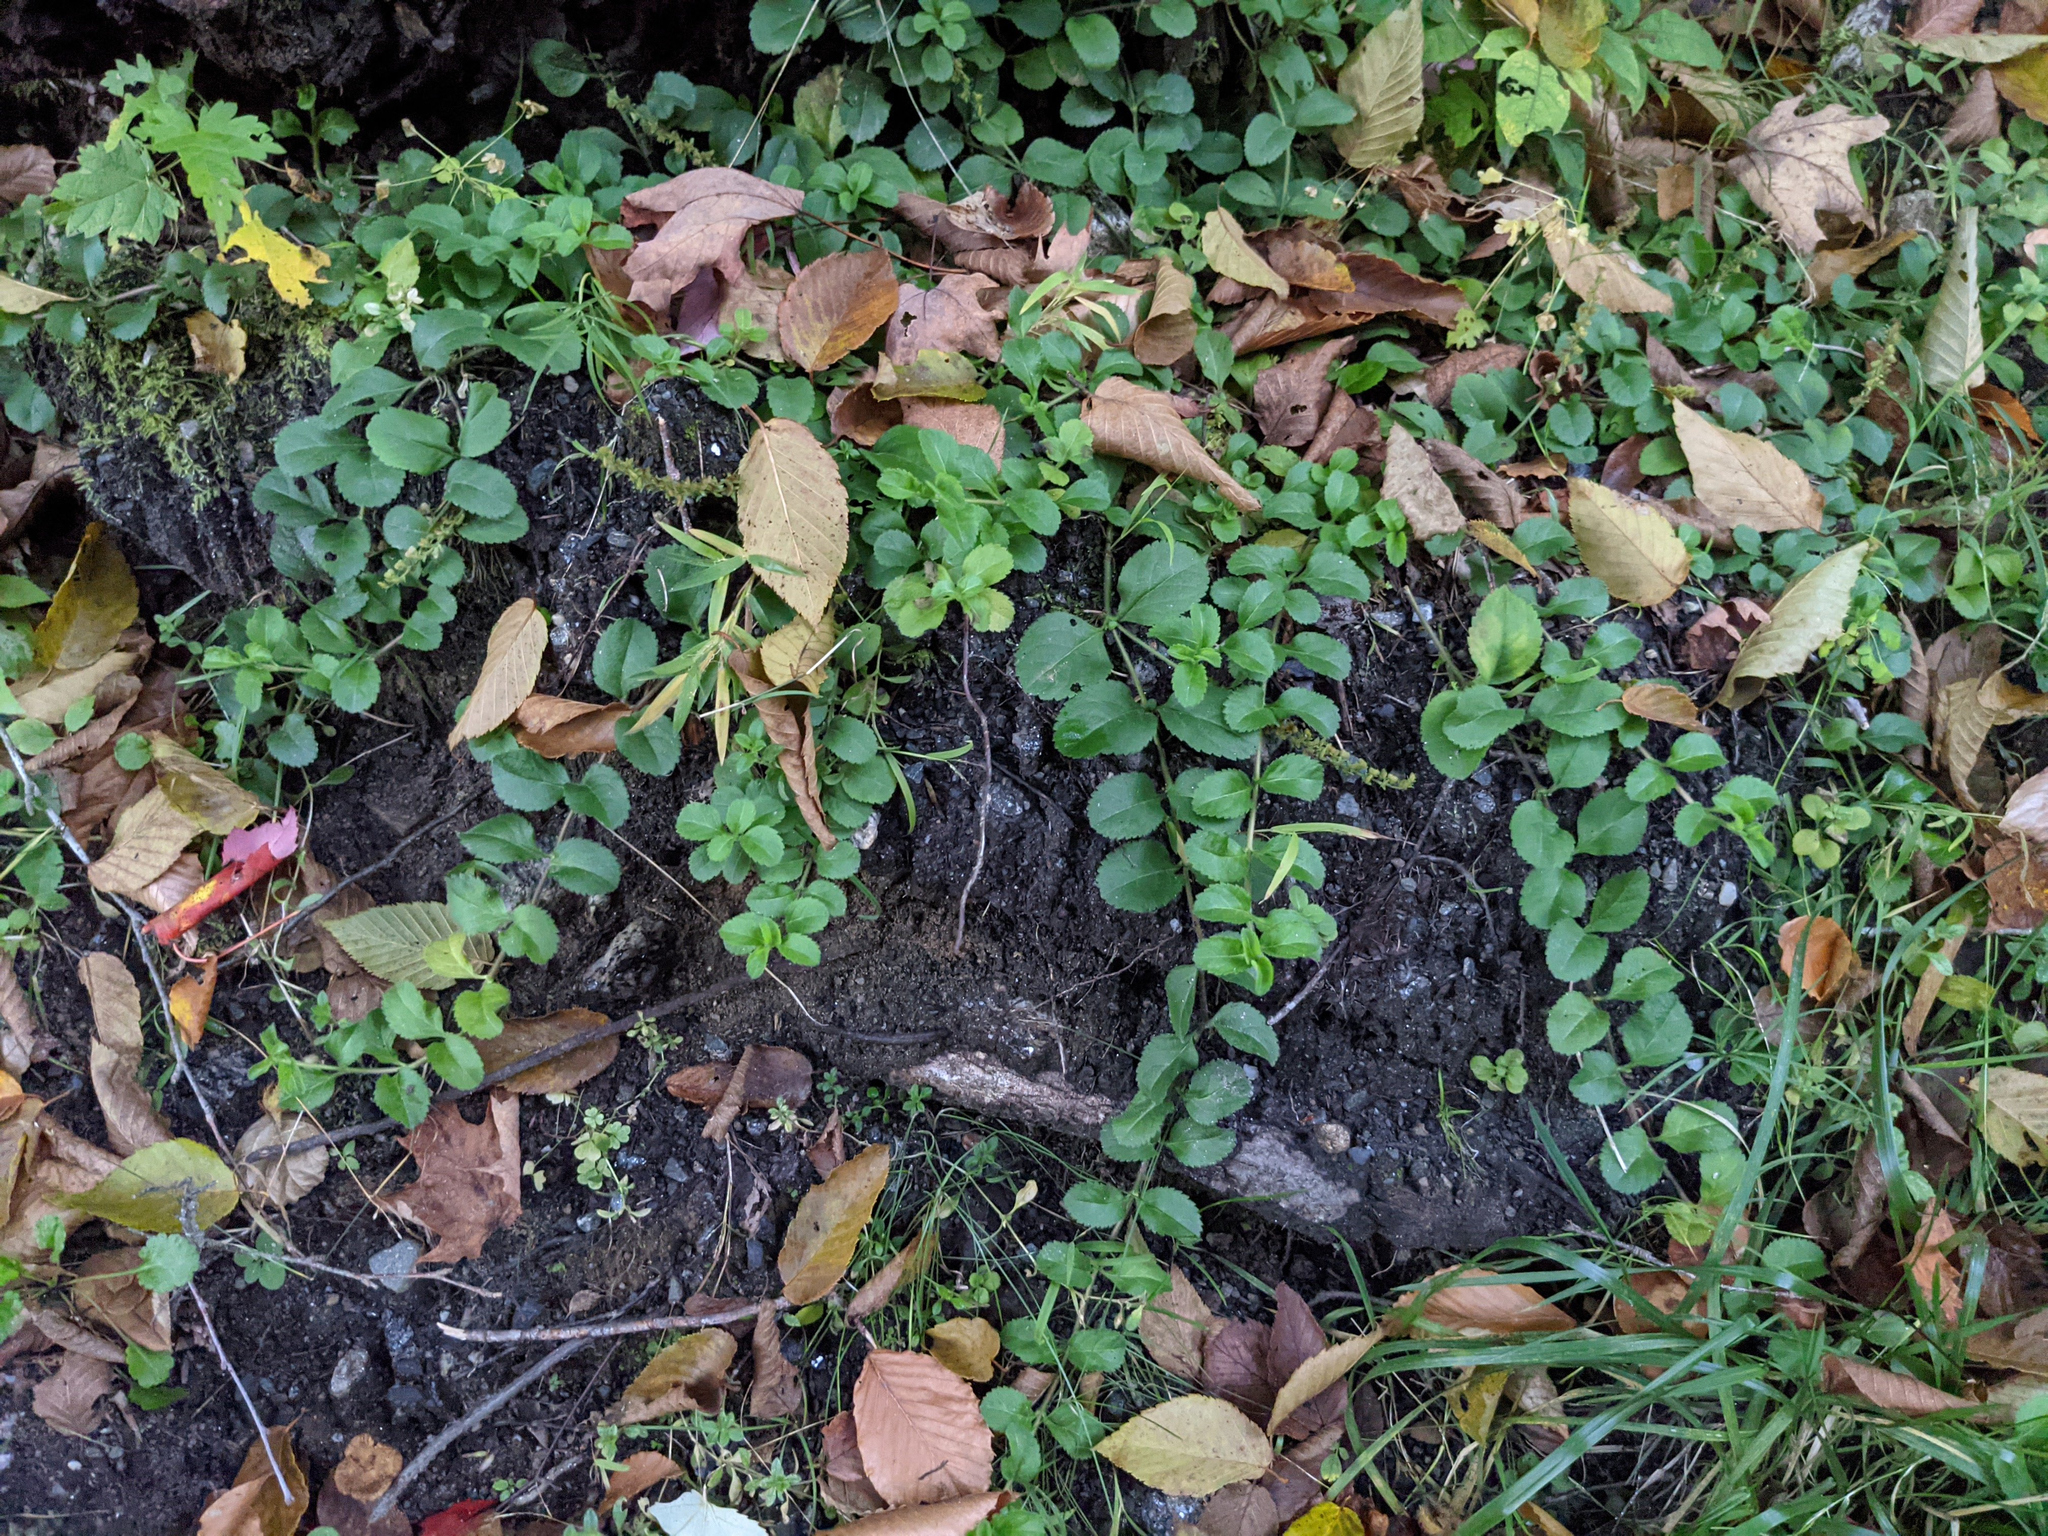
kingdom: Plantae
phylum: Tracheophyta
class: Magnoliopsida
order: Lamiales
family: Plantaginaceae
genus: Veronica
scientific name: Veronica officinalis
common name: Common speedwell
